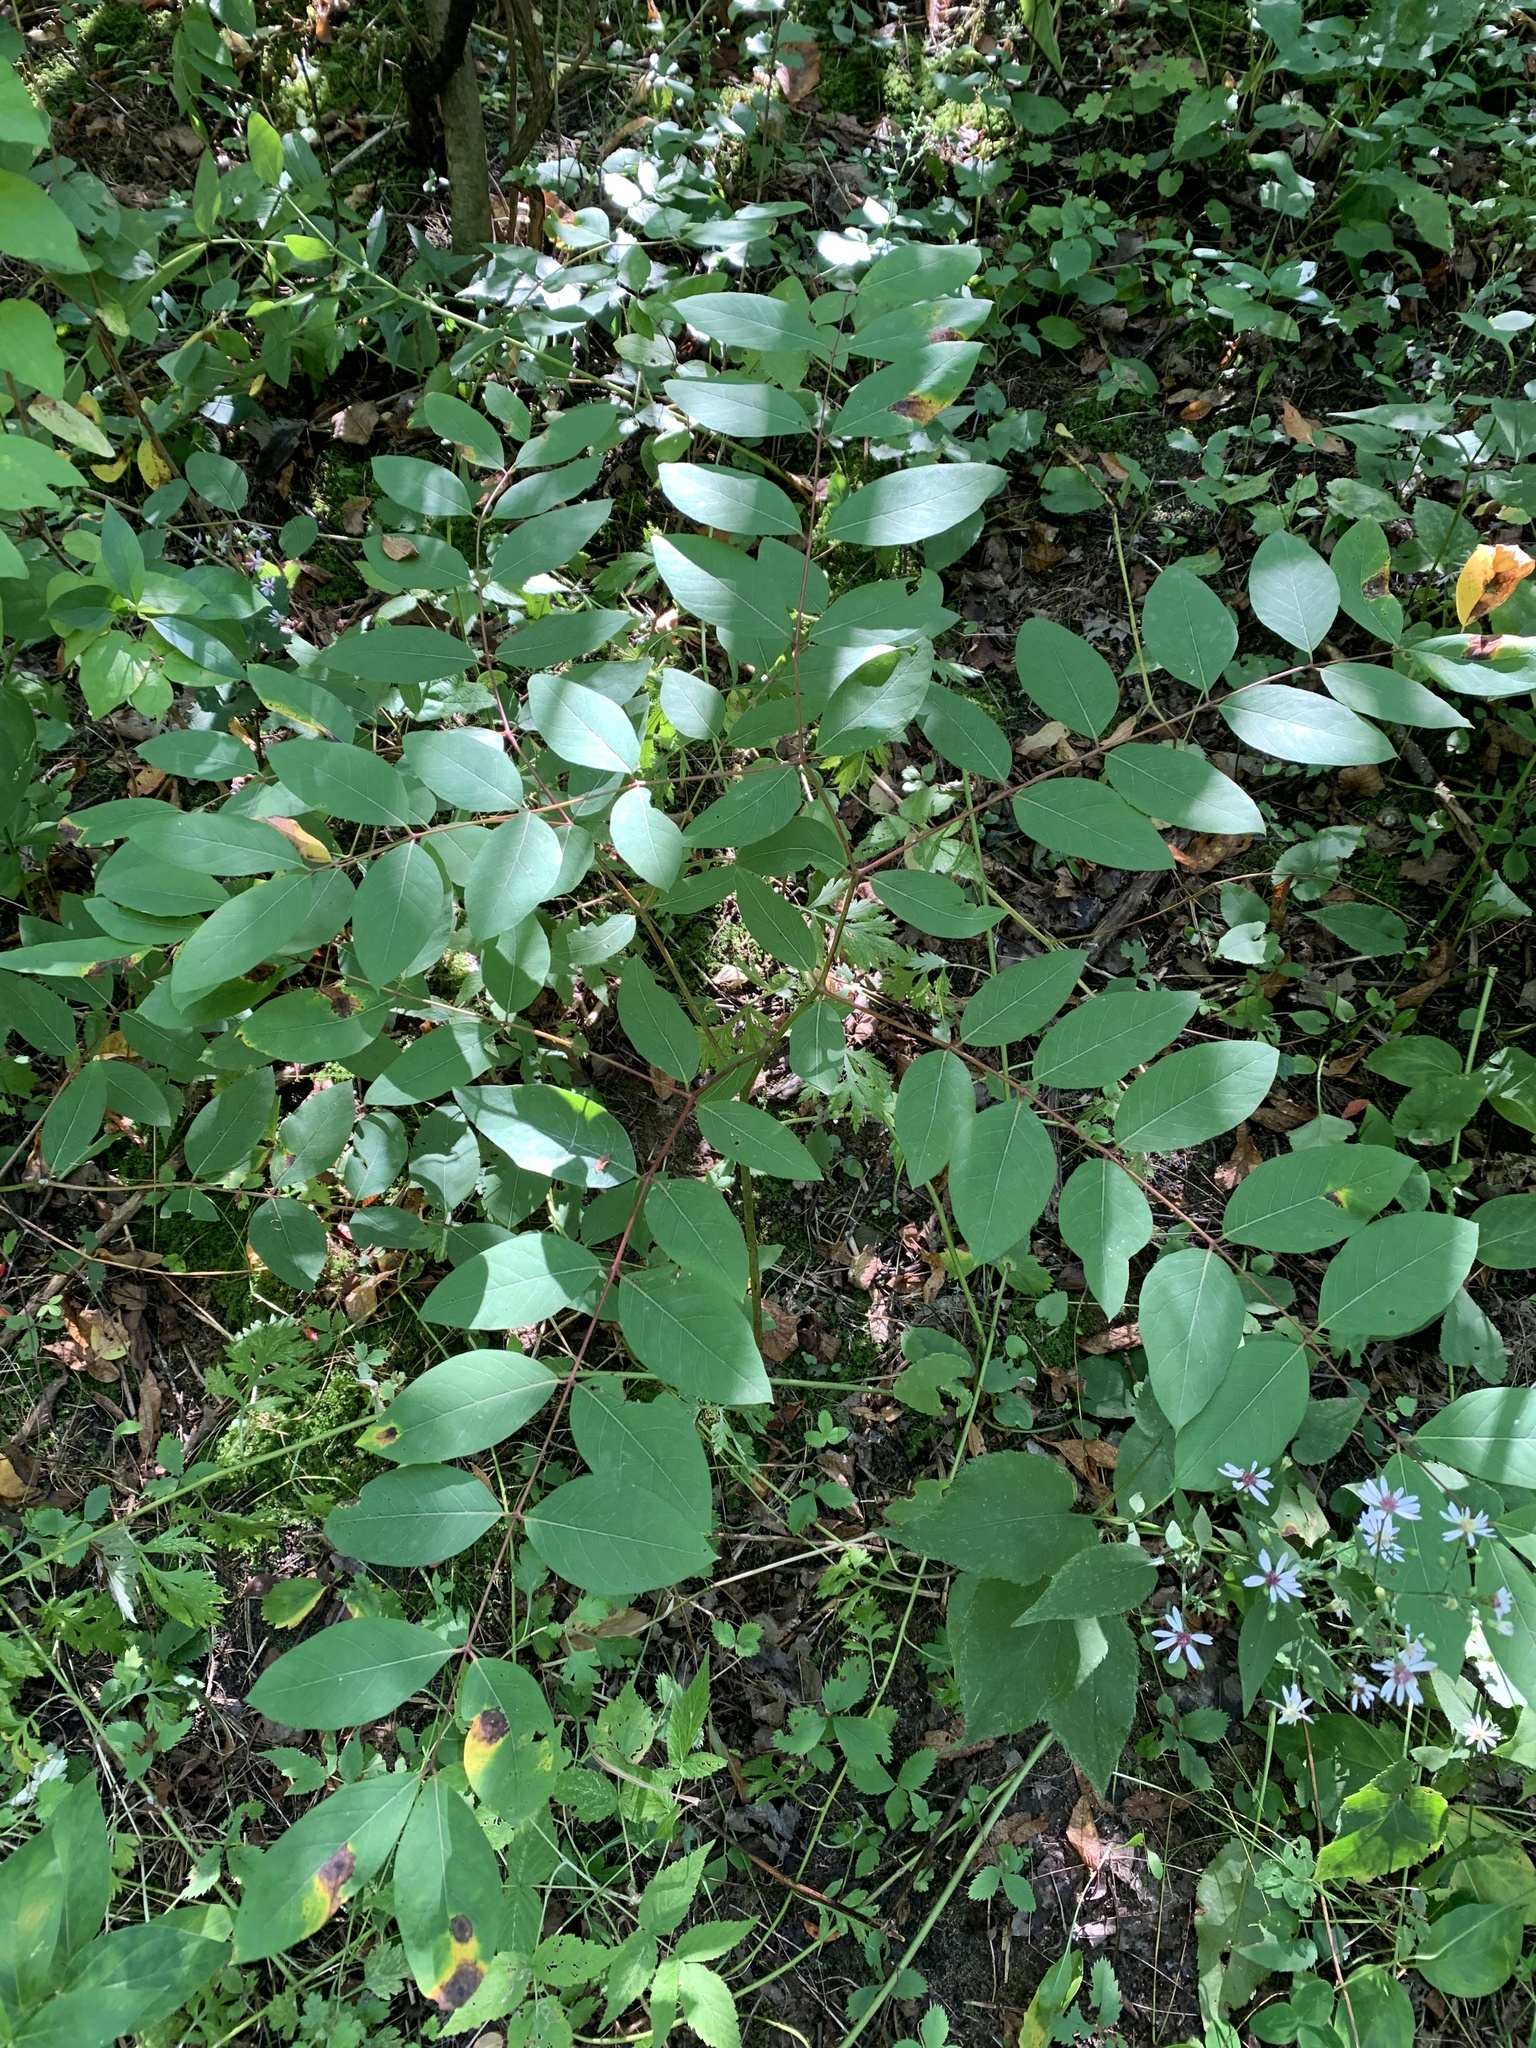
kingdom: Plantae
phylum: Tracheophyta
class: Magnoliopsida
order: Gentianales
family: Apocynaceae
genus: Apocynum
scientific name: Apocynum androsaemifolium
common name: Spreading dogbane
